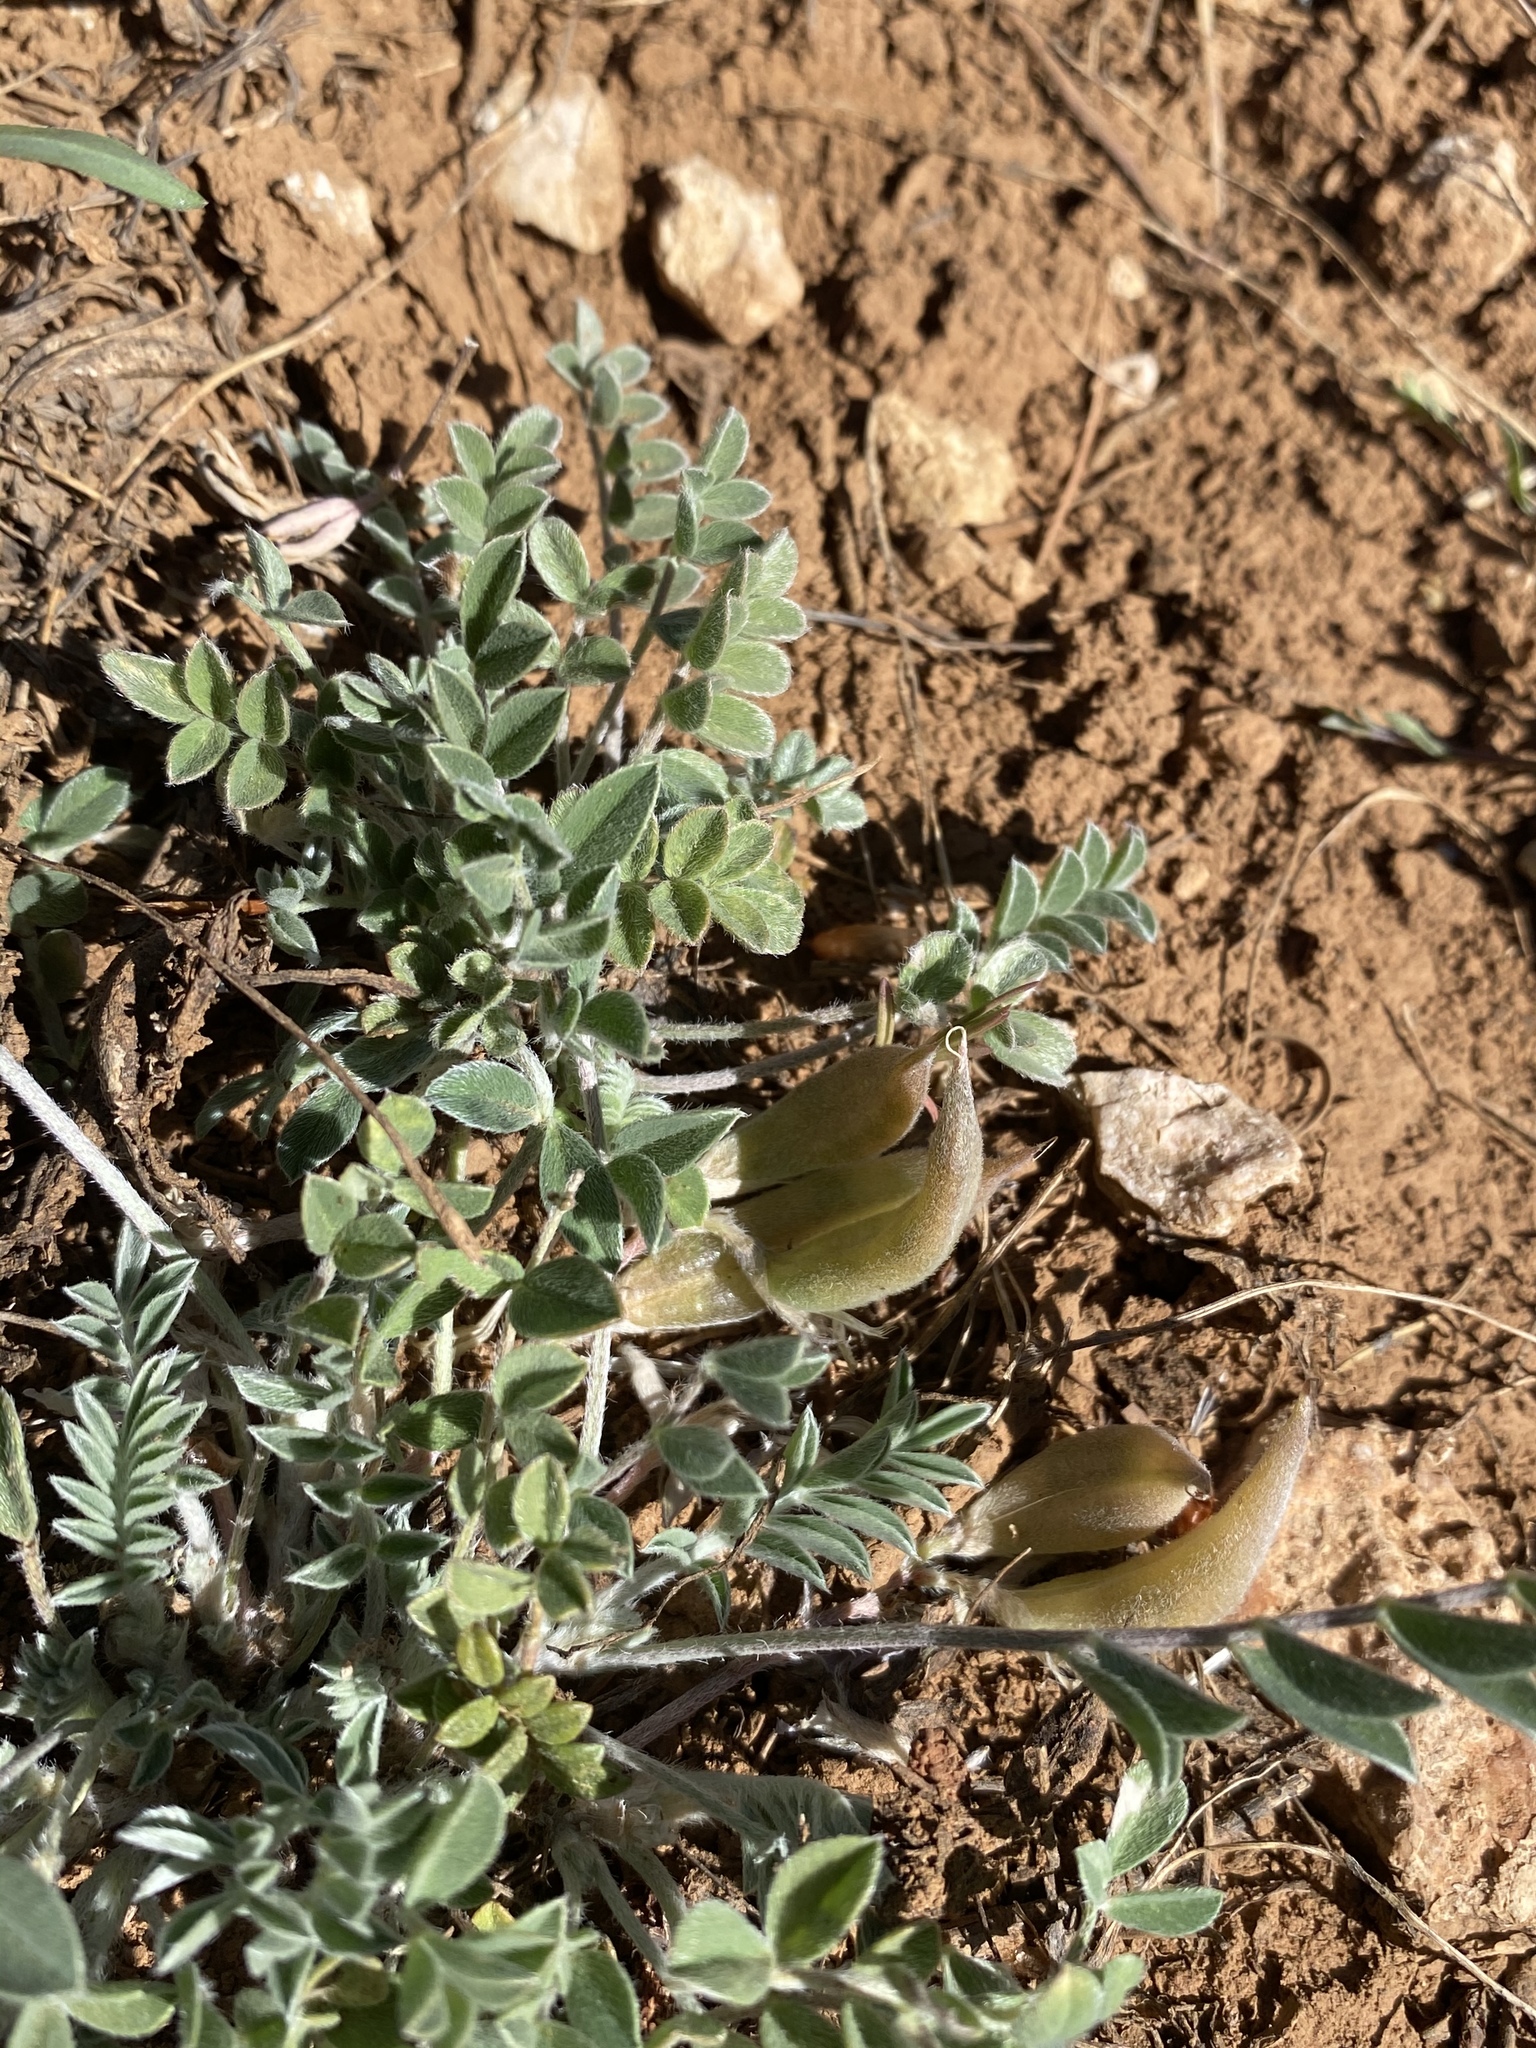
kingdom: Plantae
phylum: Tracheophyta
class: Magnoliopsida
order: Fabales
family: Fabaceae
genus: Astragalus
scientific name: Astragalus amphioxys
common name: Crescent milk-vetch
